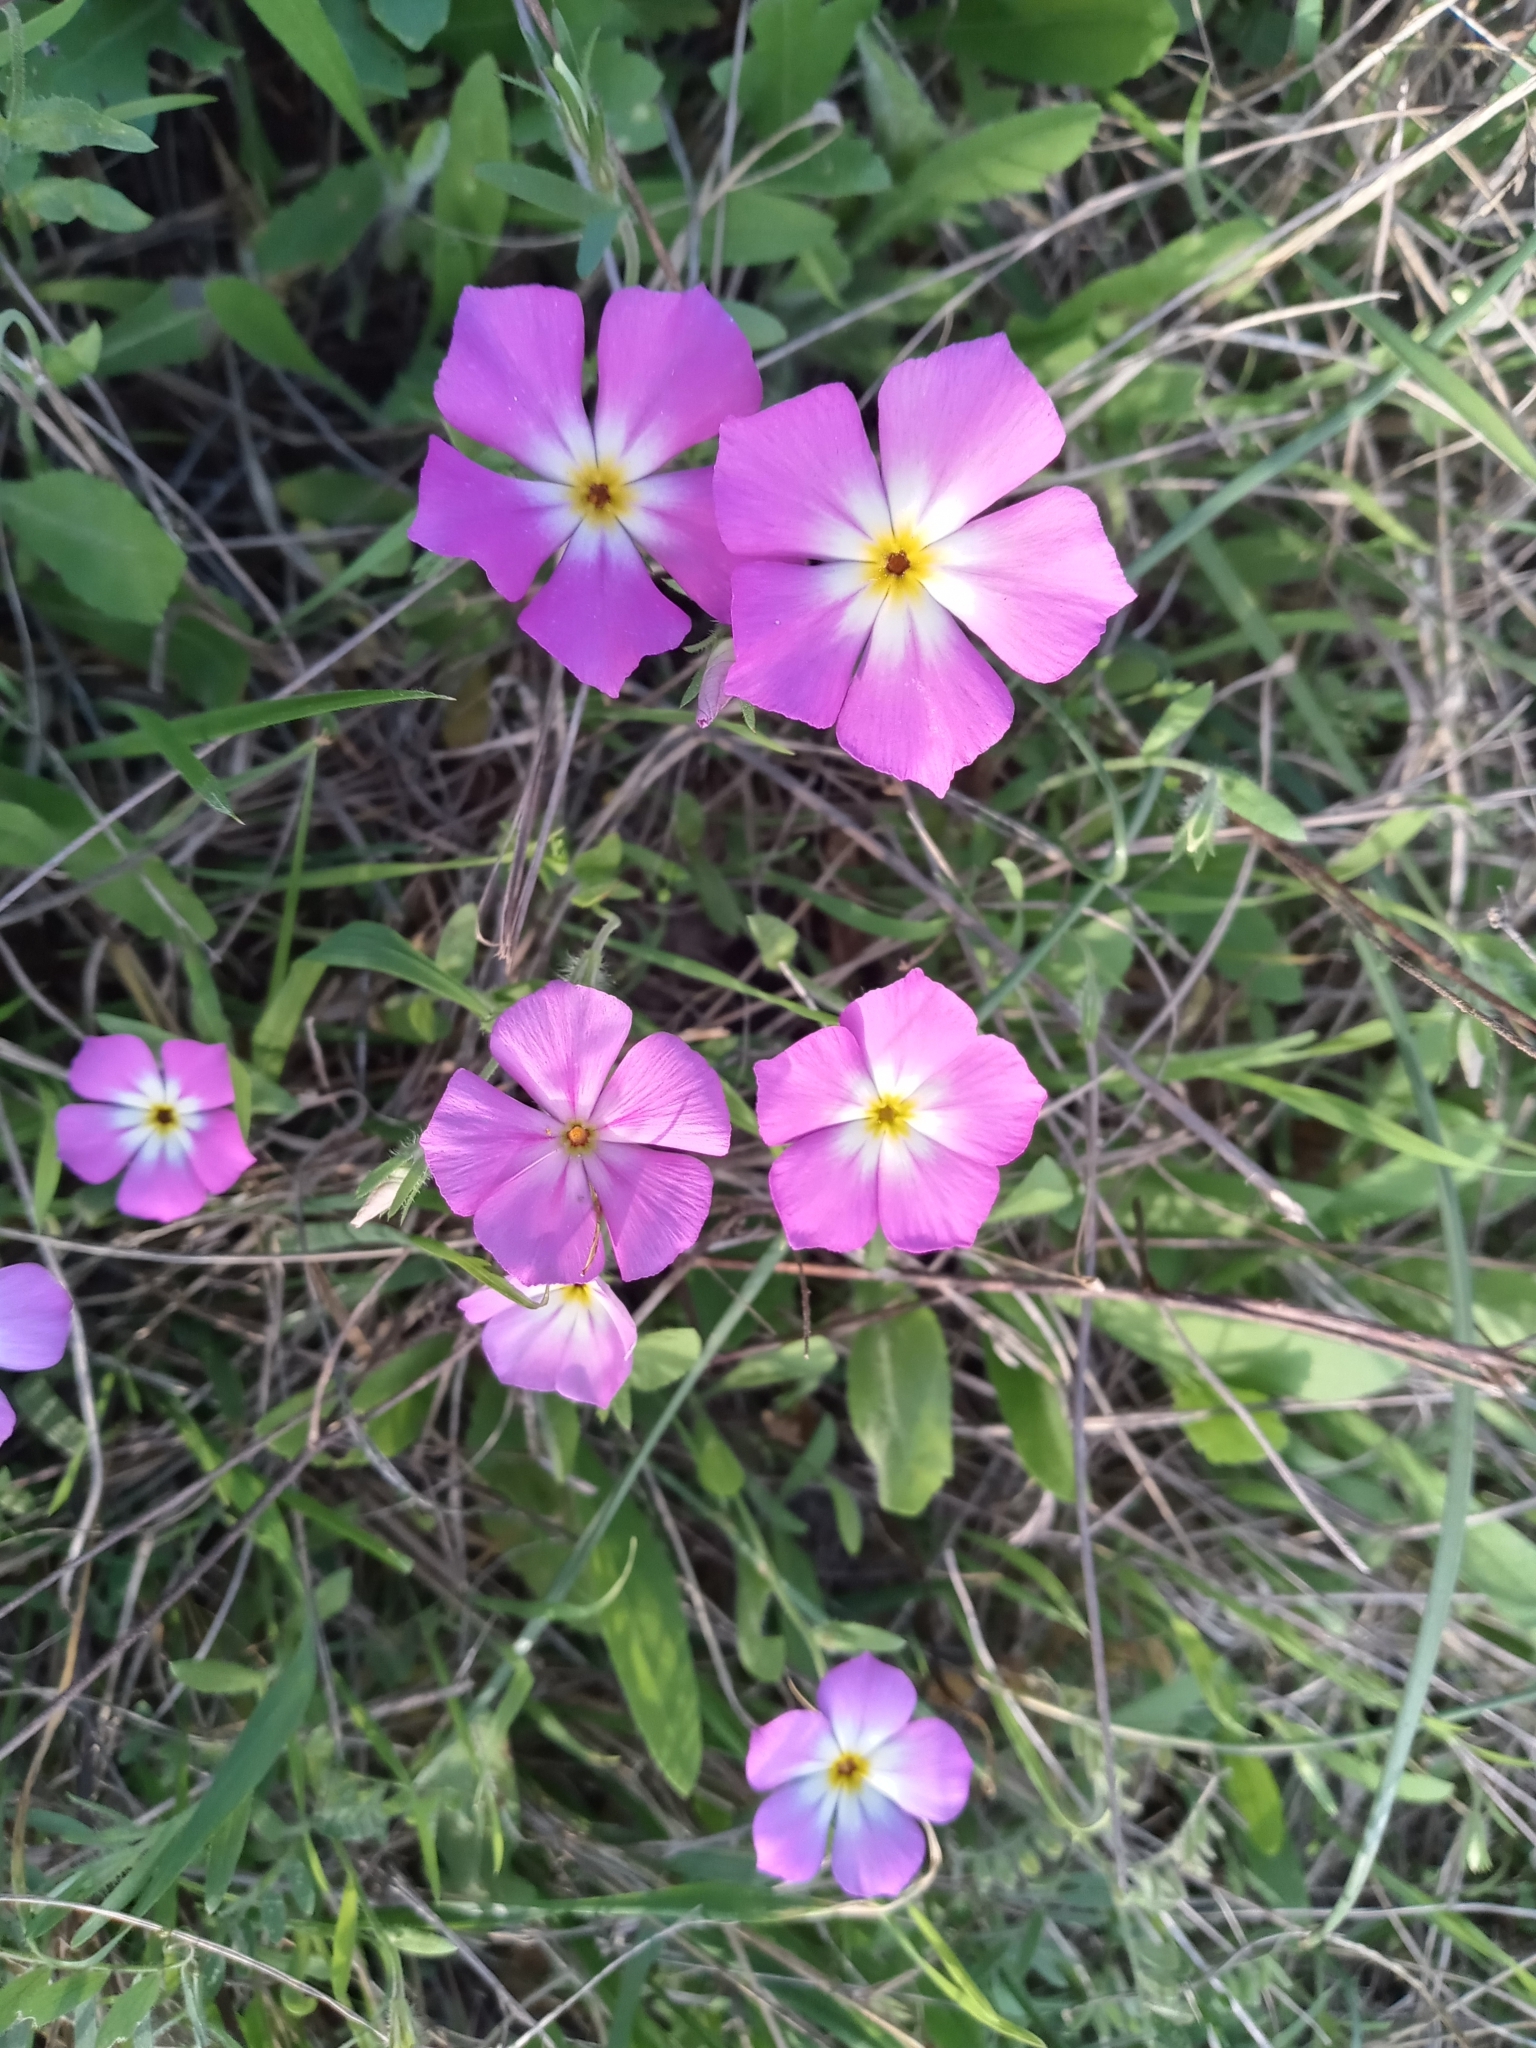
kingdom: Plantae
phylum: Tracheophyta
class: Magnoliopsida
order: Ericales
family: Polemoniaceae
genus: Phlox
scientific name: Phlox roemeriana
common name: Roemer's phlox
